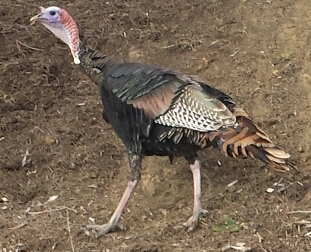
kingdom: Animalia
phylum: Chordata
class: Aves
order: Galliformes
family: Phasianidae
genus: Meleagris
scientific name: Meleagris gallopavo
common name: Wild turkey
